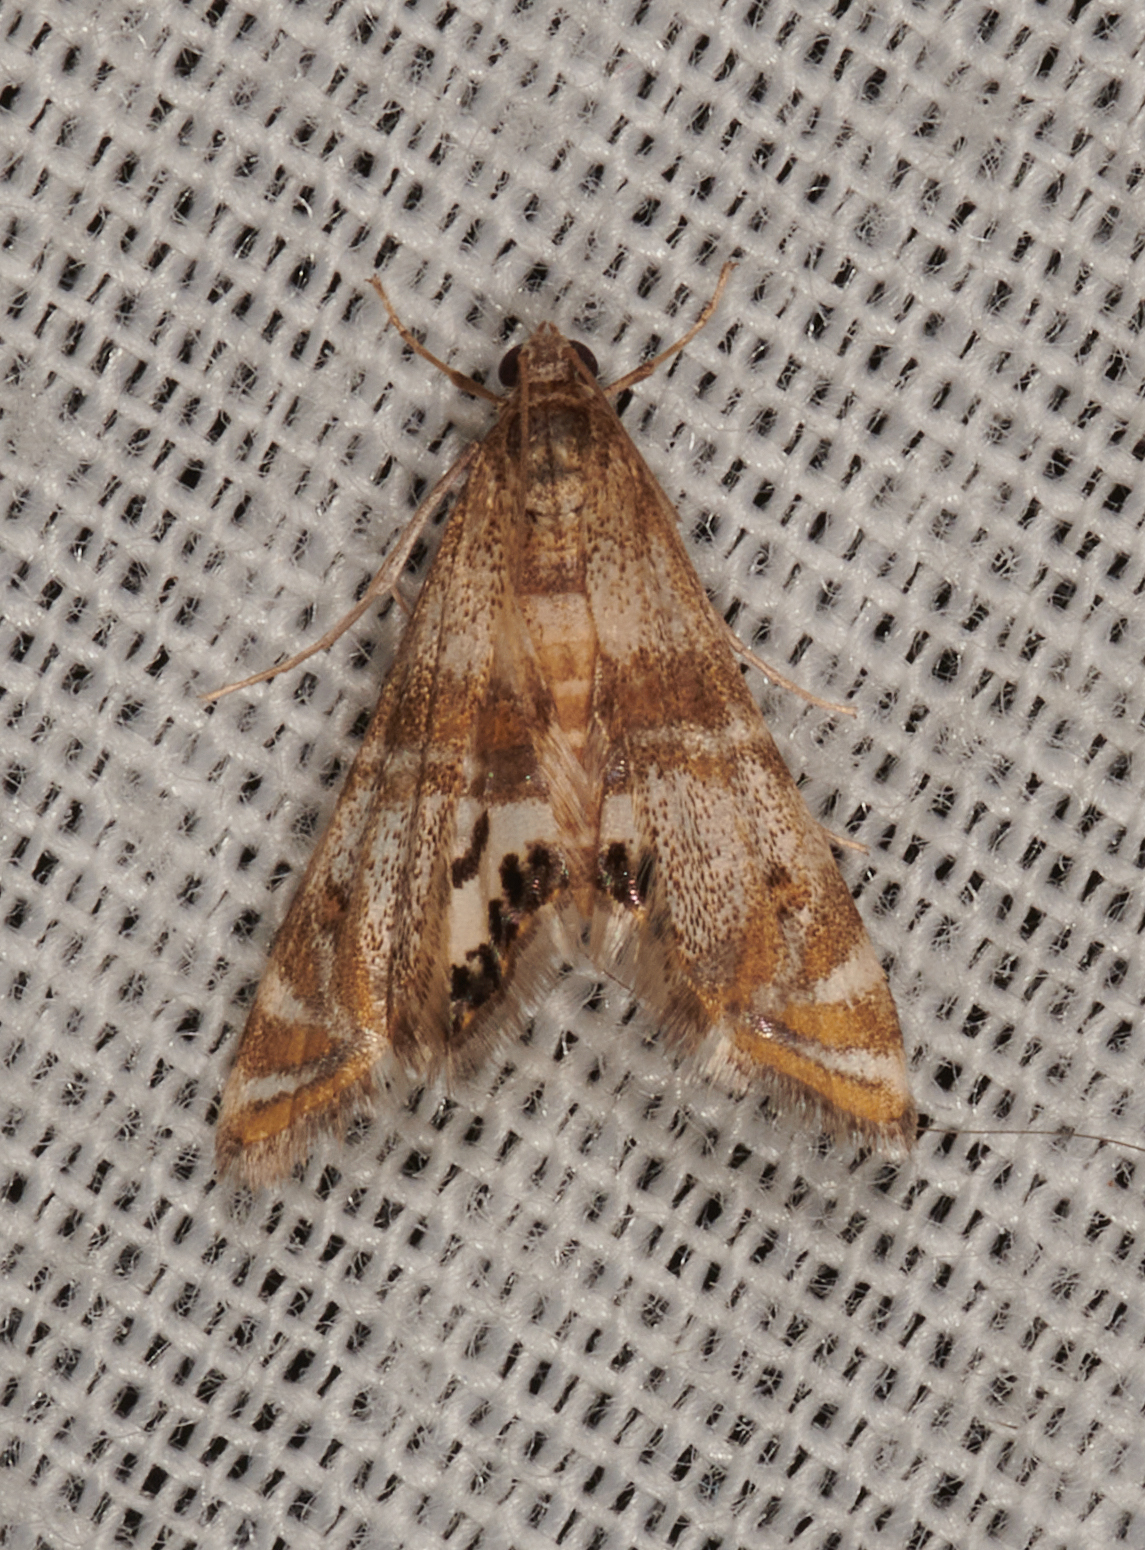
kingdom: Animalia
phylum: Arthropoda
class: Insecta
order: Lepidoptera
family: Crambidae
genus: Petrophila
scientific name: Petrophila bifascialis
